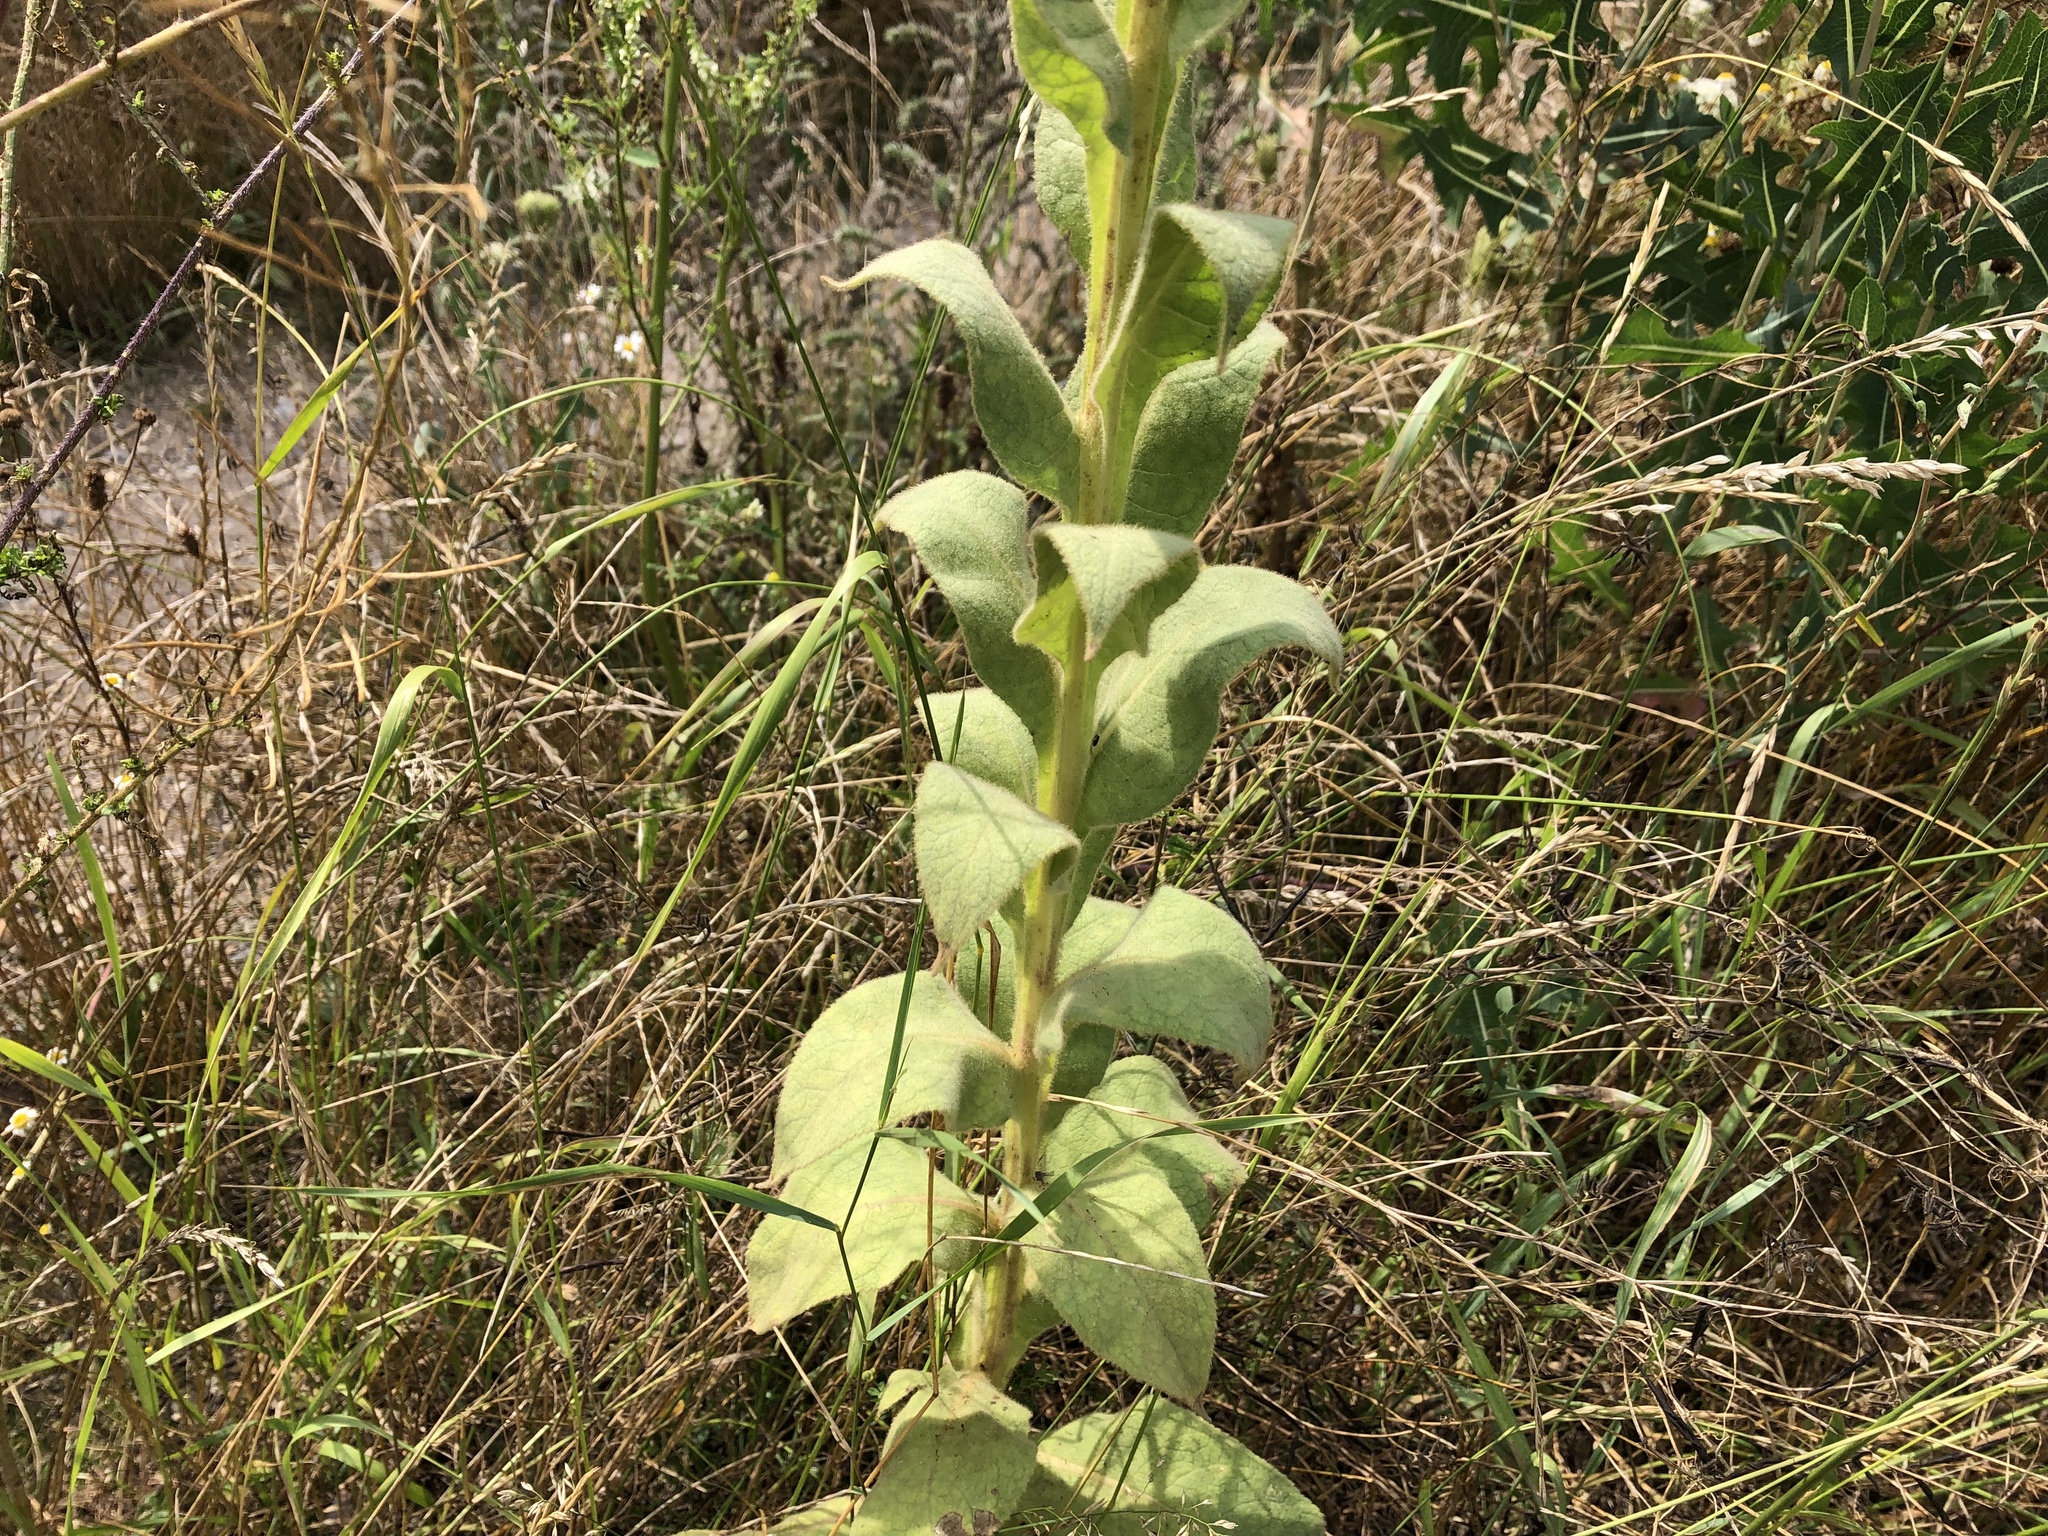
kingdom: Plantae
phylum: Tracheophyta
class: Magnoliopsida
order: Lamiales
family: Scrophulariaceae
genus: Verbascum
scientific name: Verbascum thapsus
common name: Common mullein
